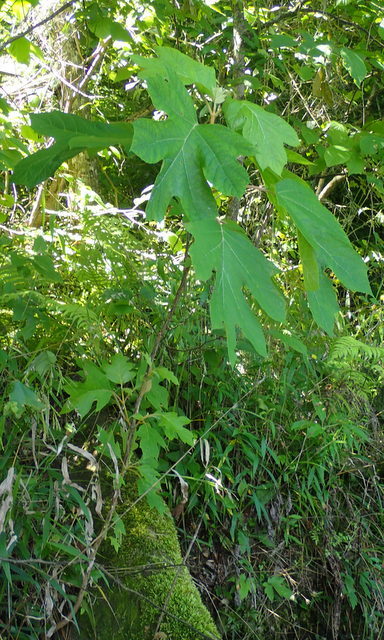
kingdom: Plantae
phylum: Tracheophyta
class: Magnoliopsida
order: Cornales
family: Hydrangeaceae
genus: Hydrangea
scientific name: Hydrangea quercifolia
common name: Oak-leaf hydrangea
